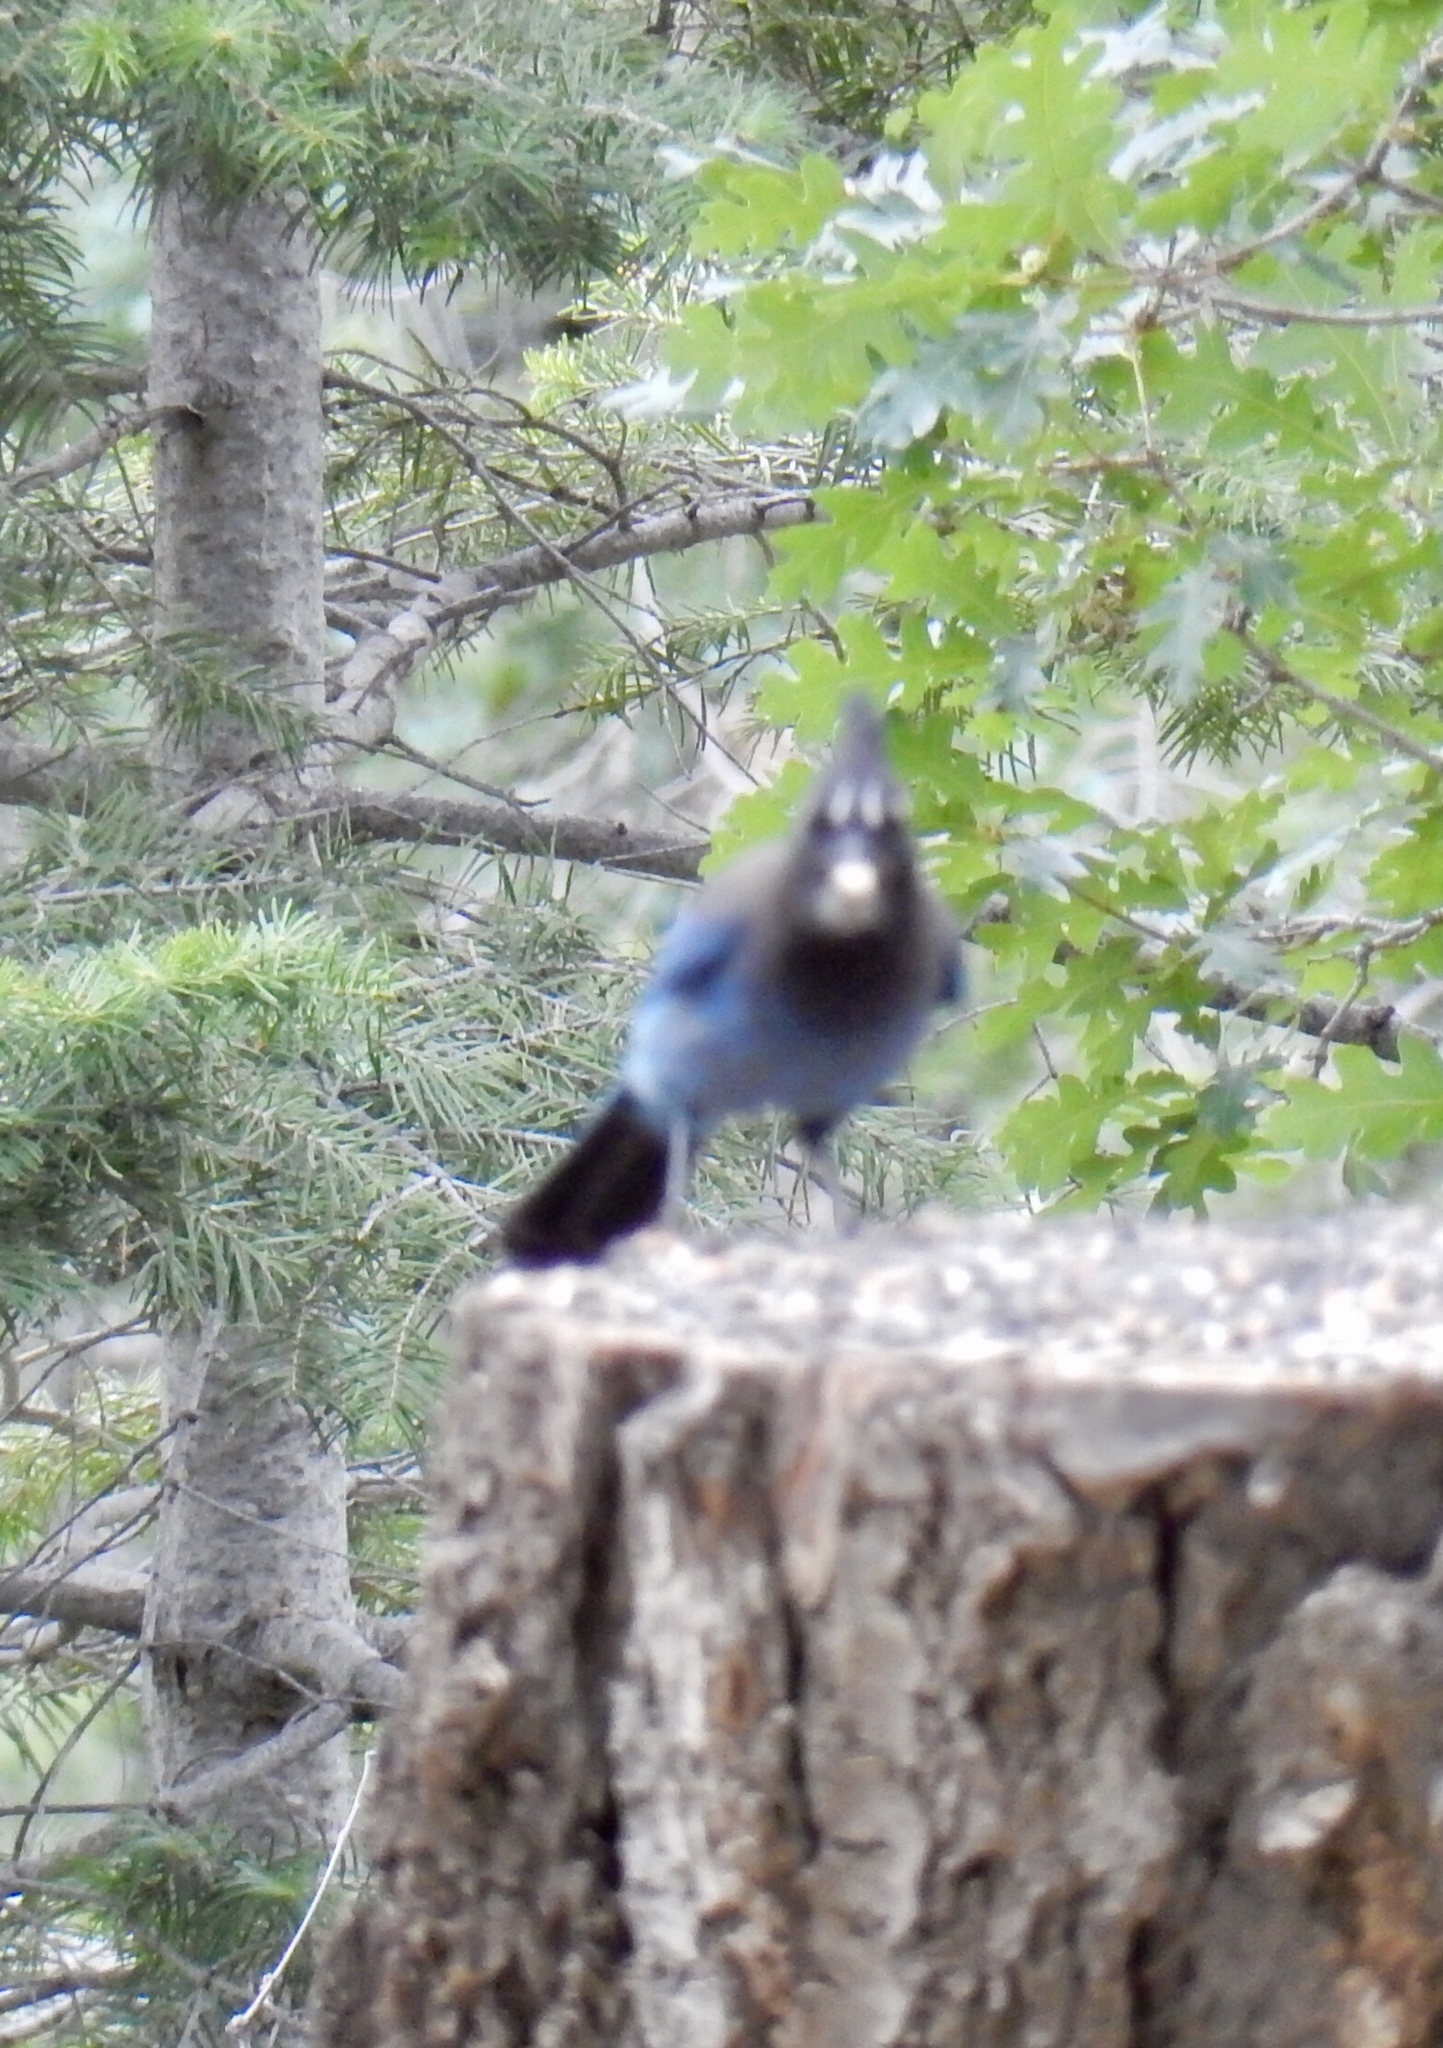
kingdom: Animalia
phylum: Chordata
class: Aves
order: Passeriformes
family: Corvidae
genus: Cyanocitta
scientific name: Cyanocitta stelleri
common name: Steller's jay
